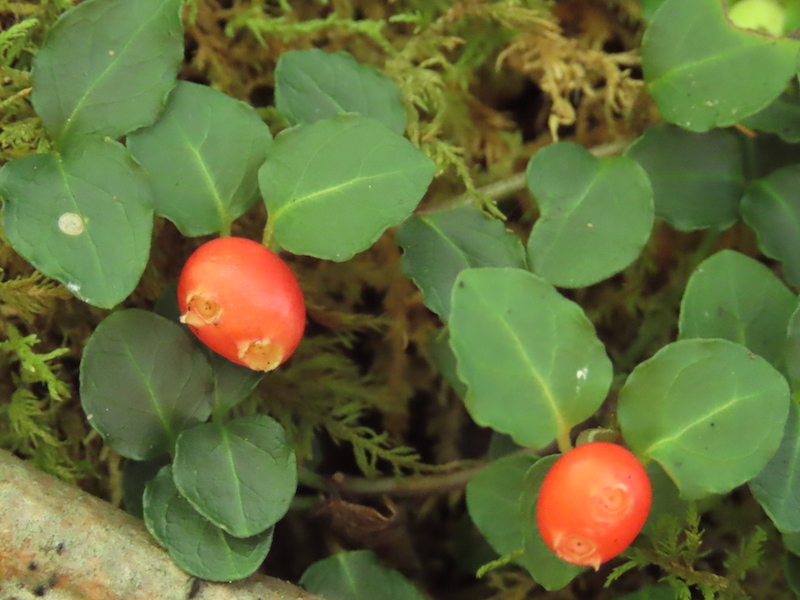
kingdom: Plantae
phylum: Tracheophyta
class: Magnoliopsida
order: Gentianales
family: Rubiaceae
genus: Mitchella
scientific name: Mitchella repens
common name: Partridge-berry
